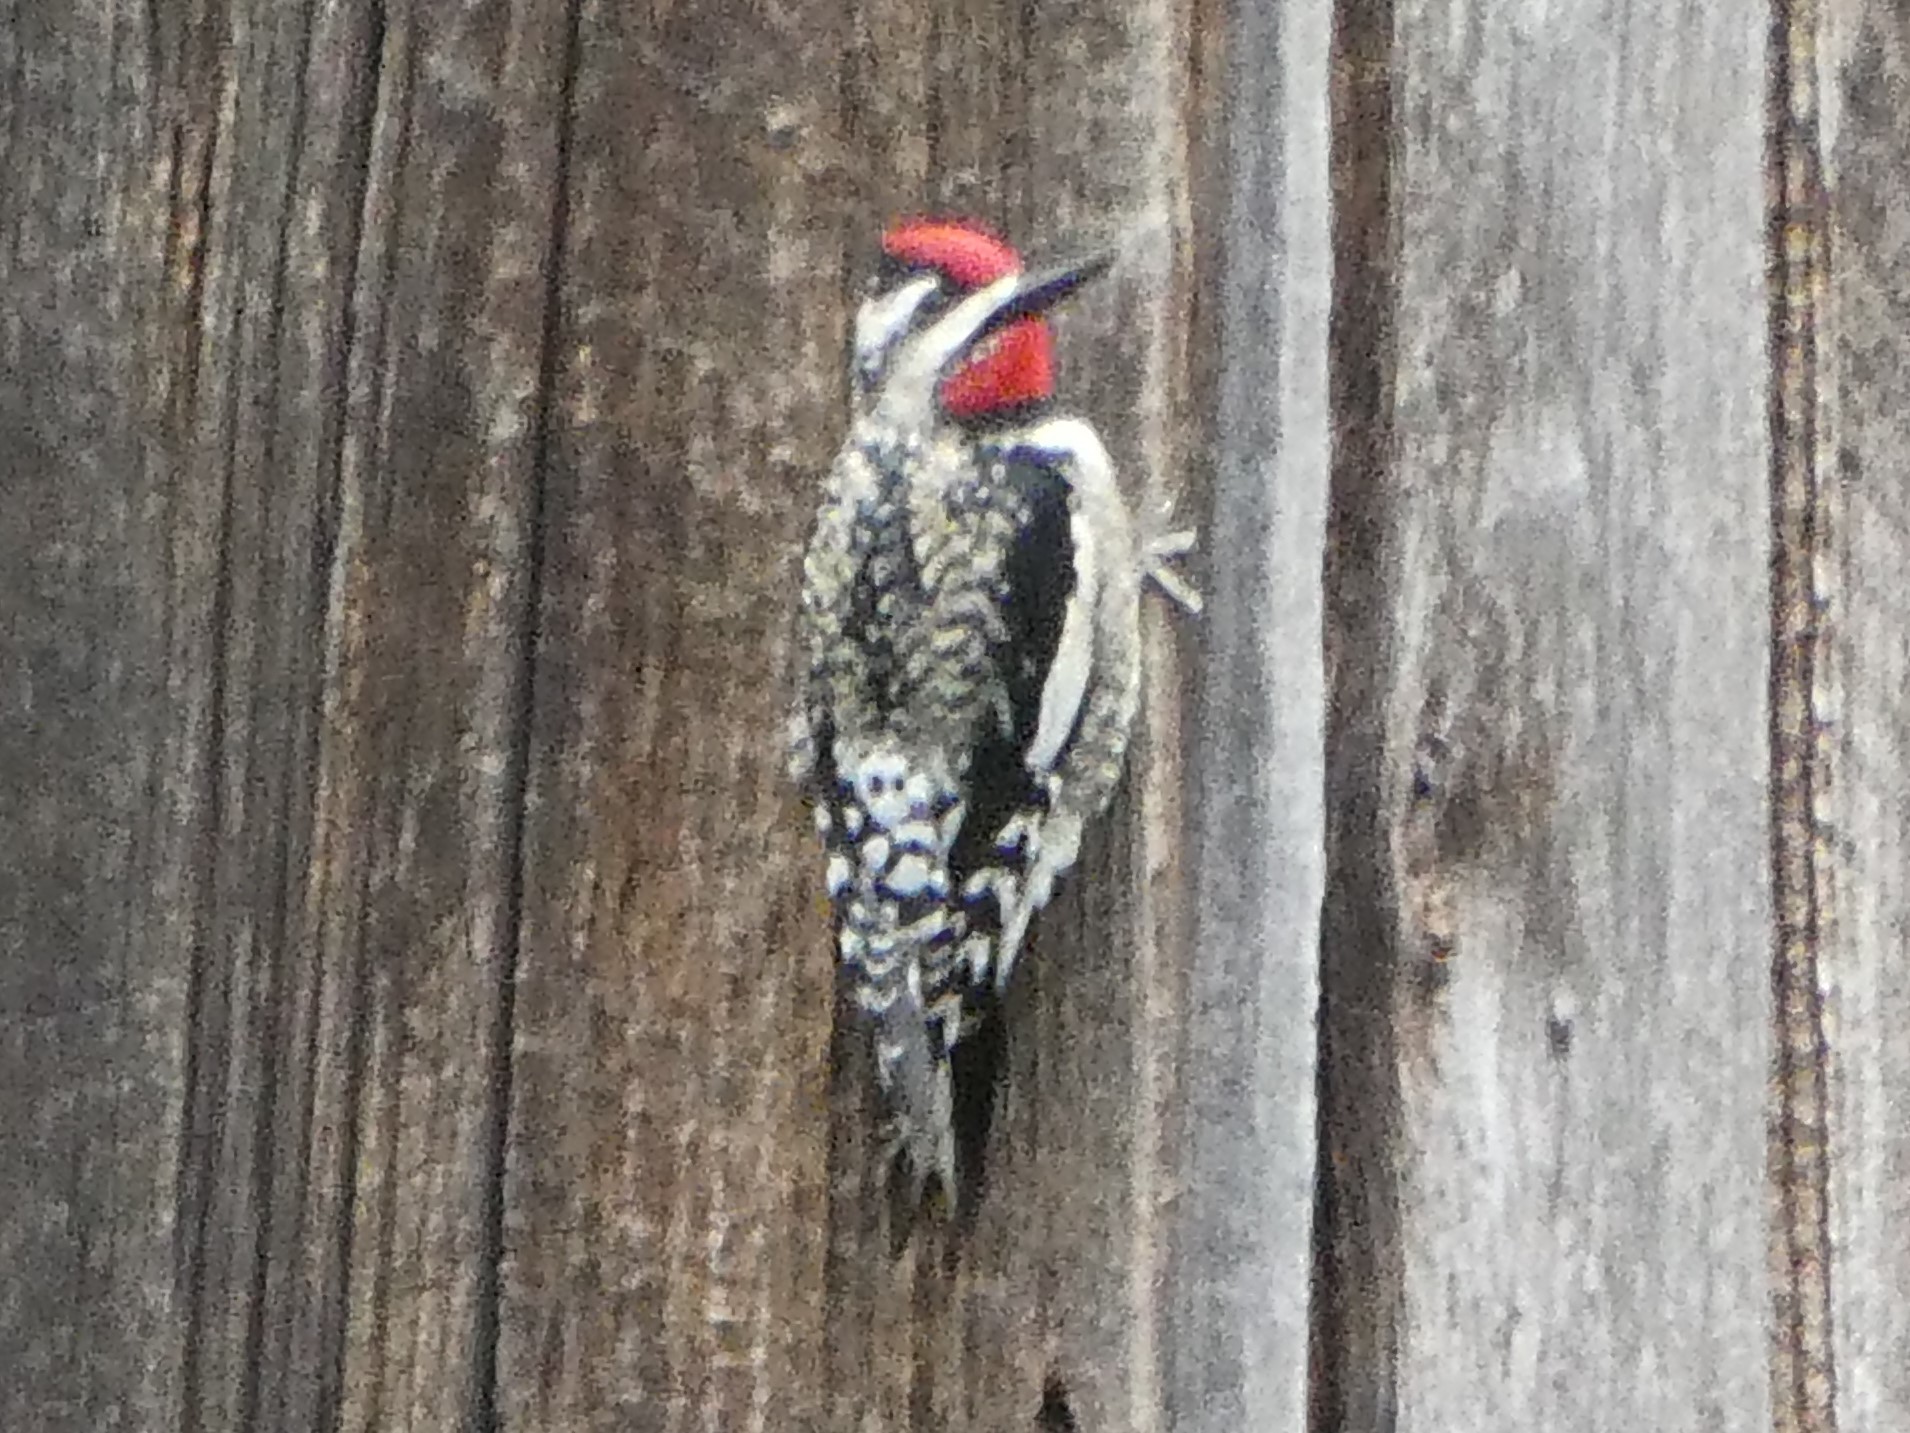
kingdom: Animalia
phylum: Chordata
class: Aves
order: Piciformes
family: Picidae
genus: Sphyrapicus
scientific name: Sphyrapicus varius
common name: Yellow-bellied sapsucker
